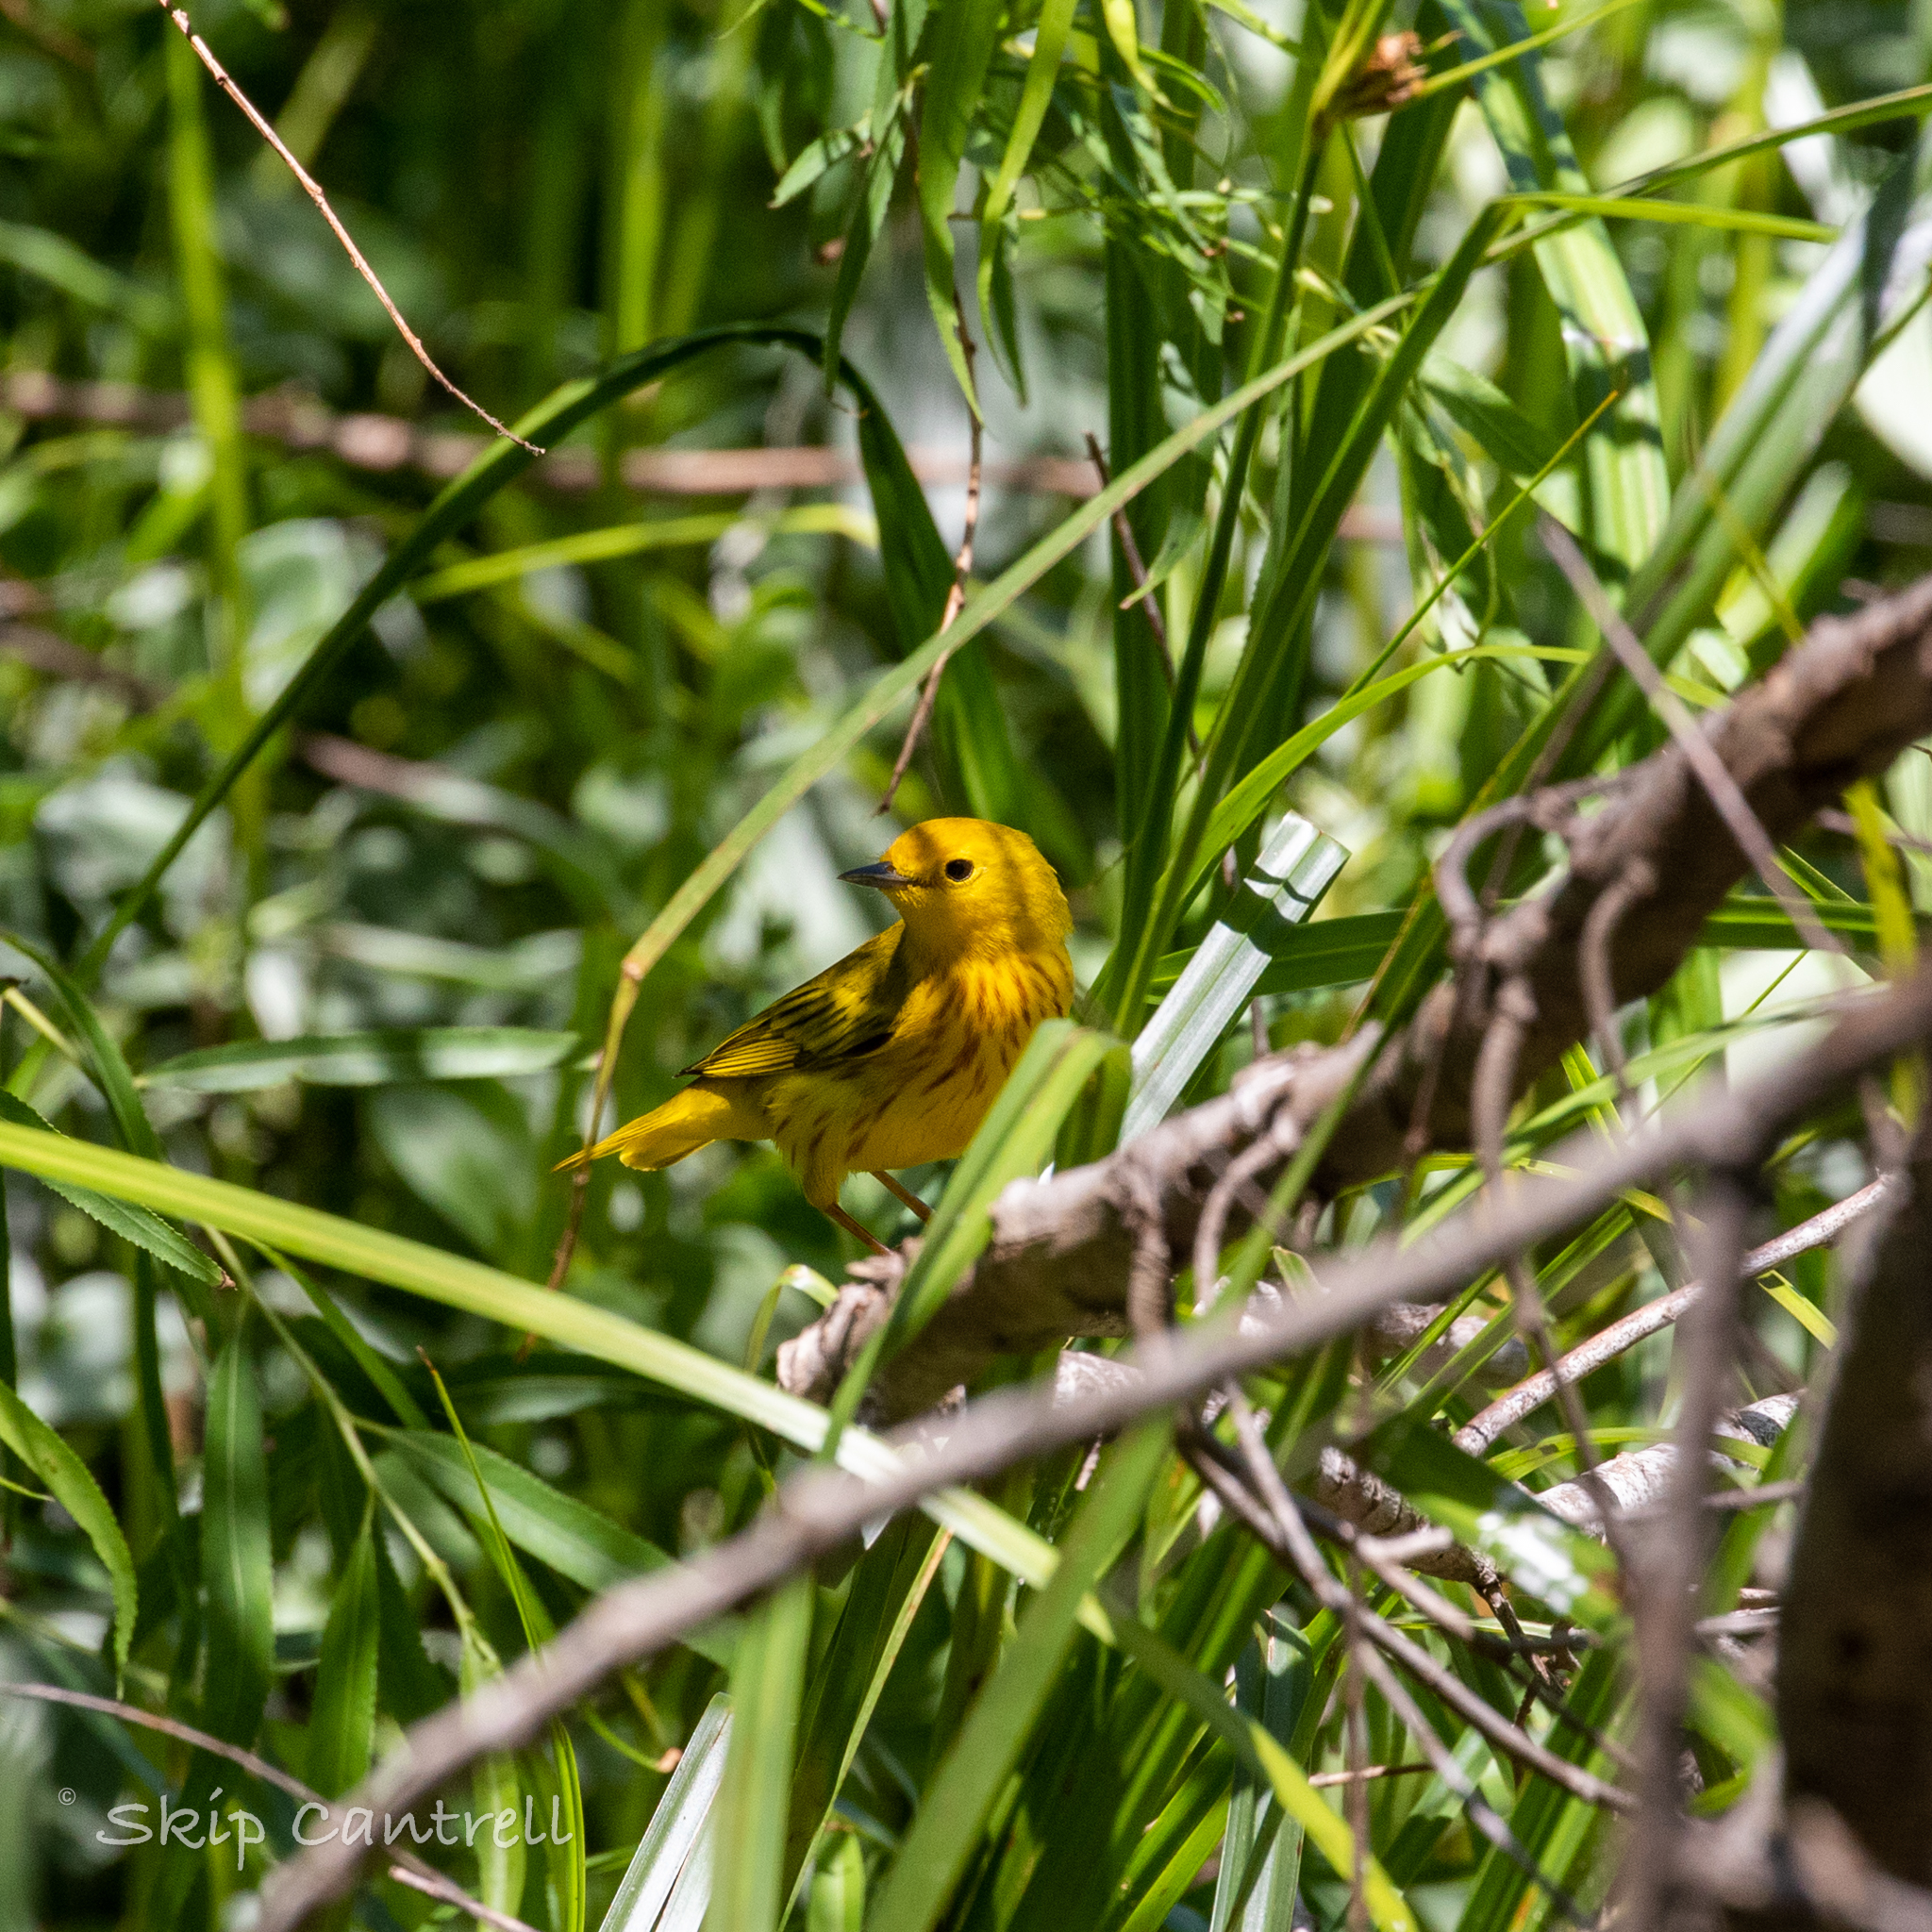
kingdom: Animalia
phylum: Chordata
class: Aves
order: Passeriformes
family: Parulidae
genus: Setophaga
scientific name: Setophaga petechia
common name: Yellow warbler
